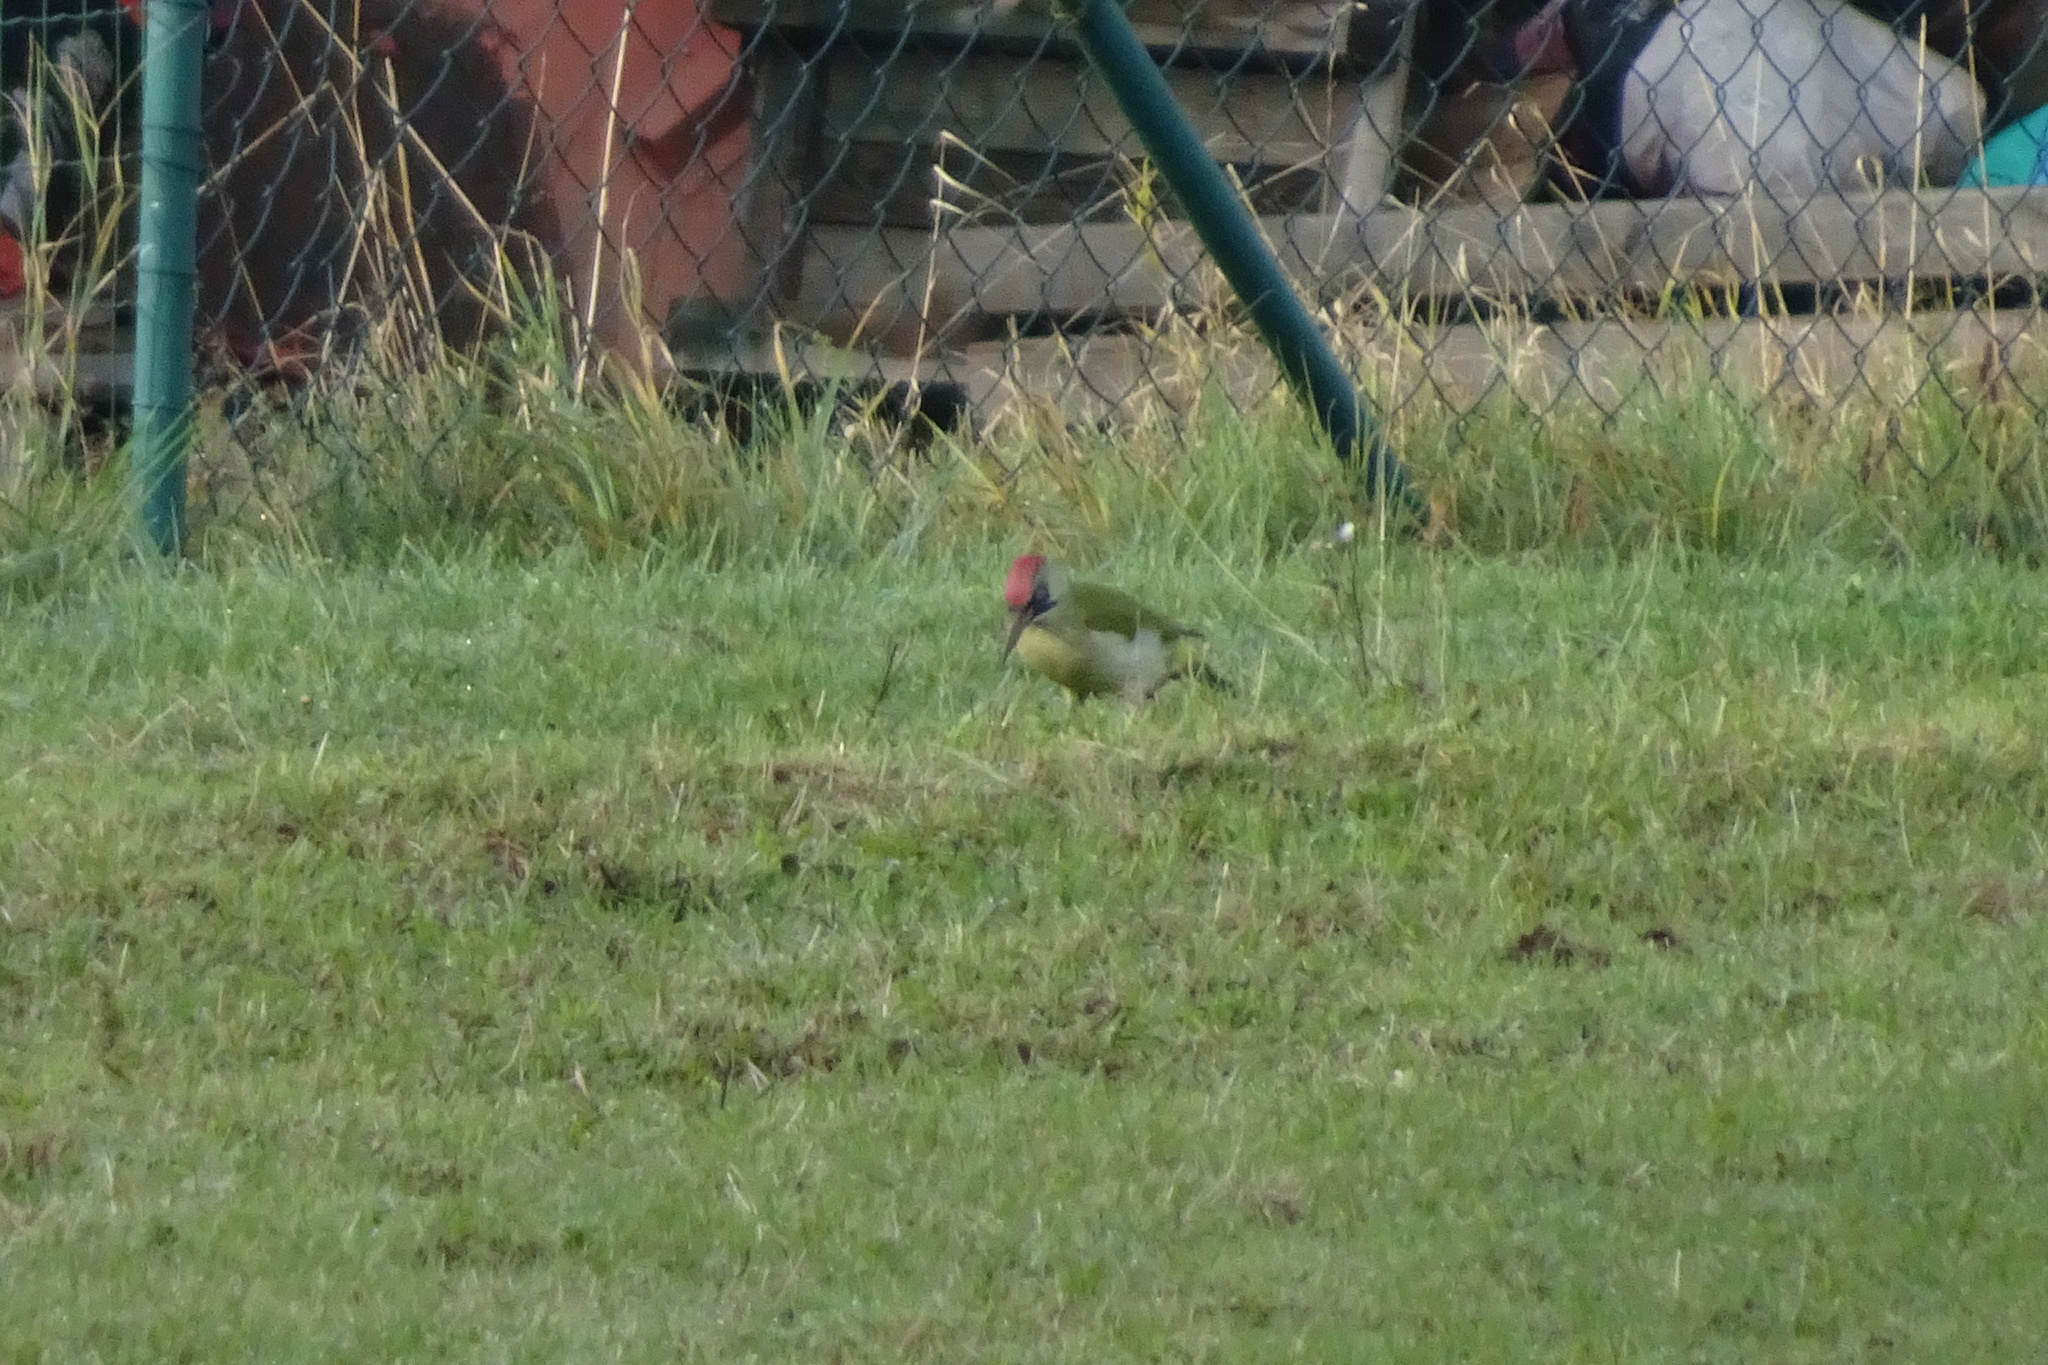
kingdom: Animalia
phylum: Chordata
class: Aves
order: Piciformes
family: Picidae
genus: Picus
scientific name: Picus viridis
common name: European green woodpecker
